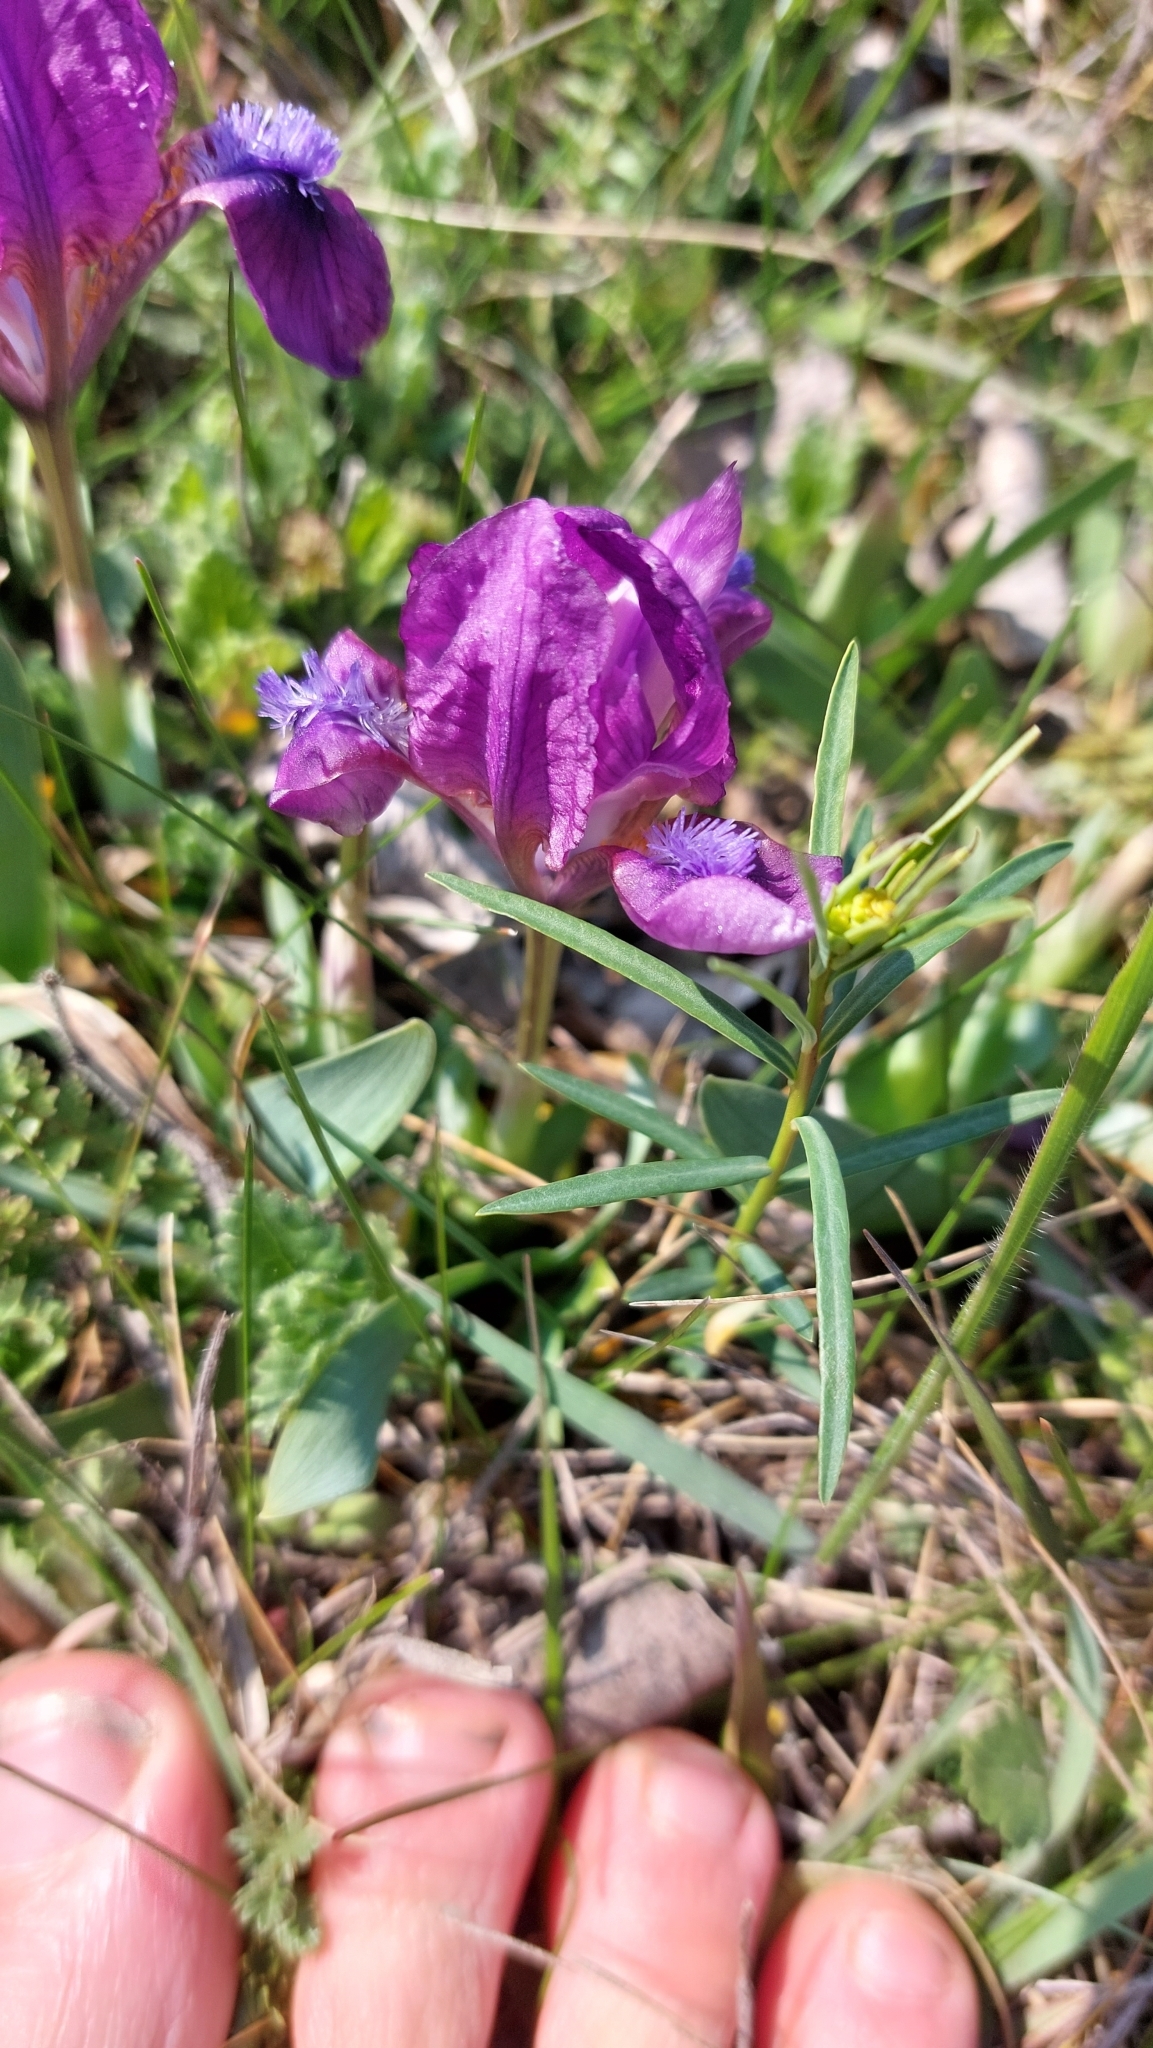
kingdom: Plantae
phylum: Tracheophyta
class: Liliopsida
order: Asparagales
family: Iridaceae
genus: Iris
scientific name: Iris pumila
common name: Dwarf iris
